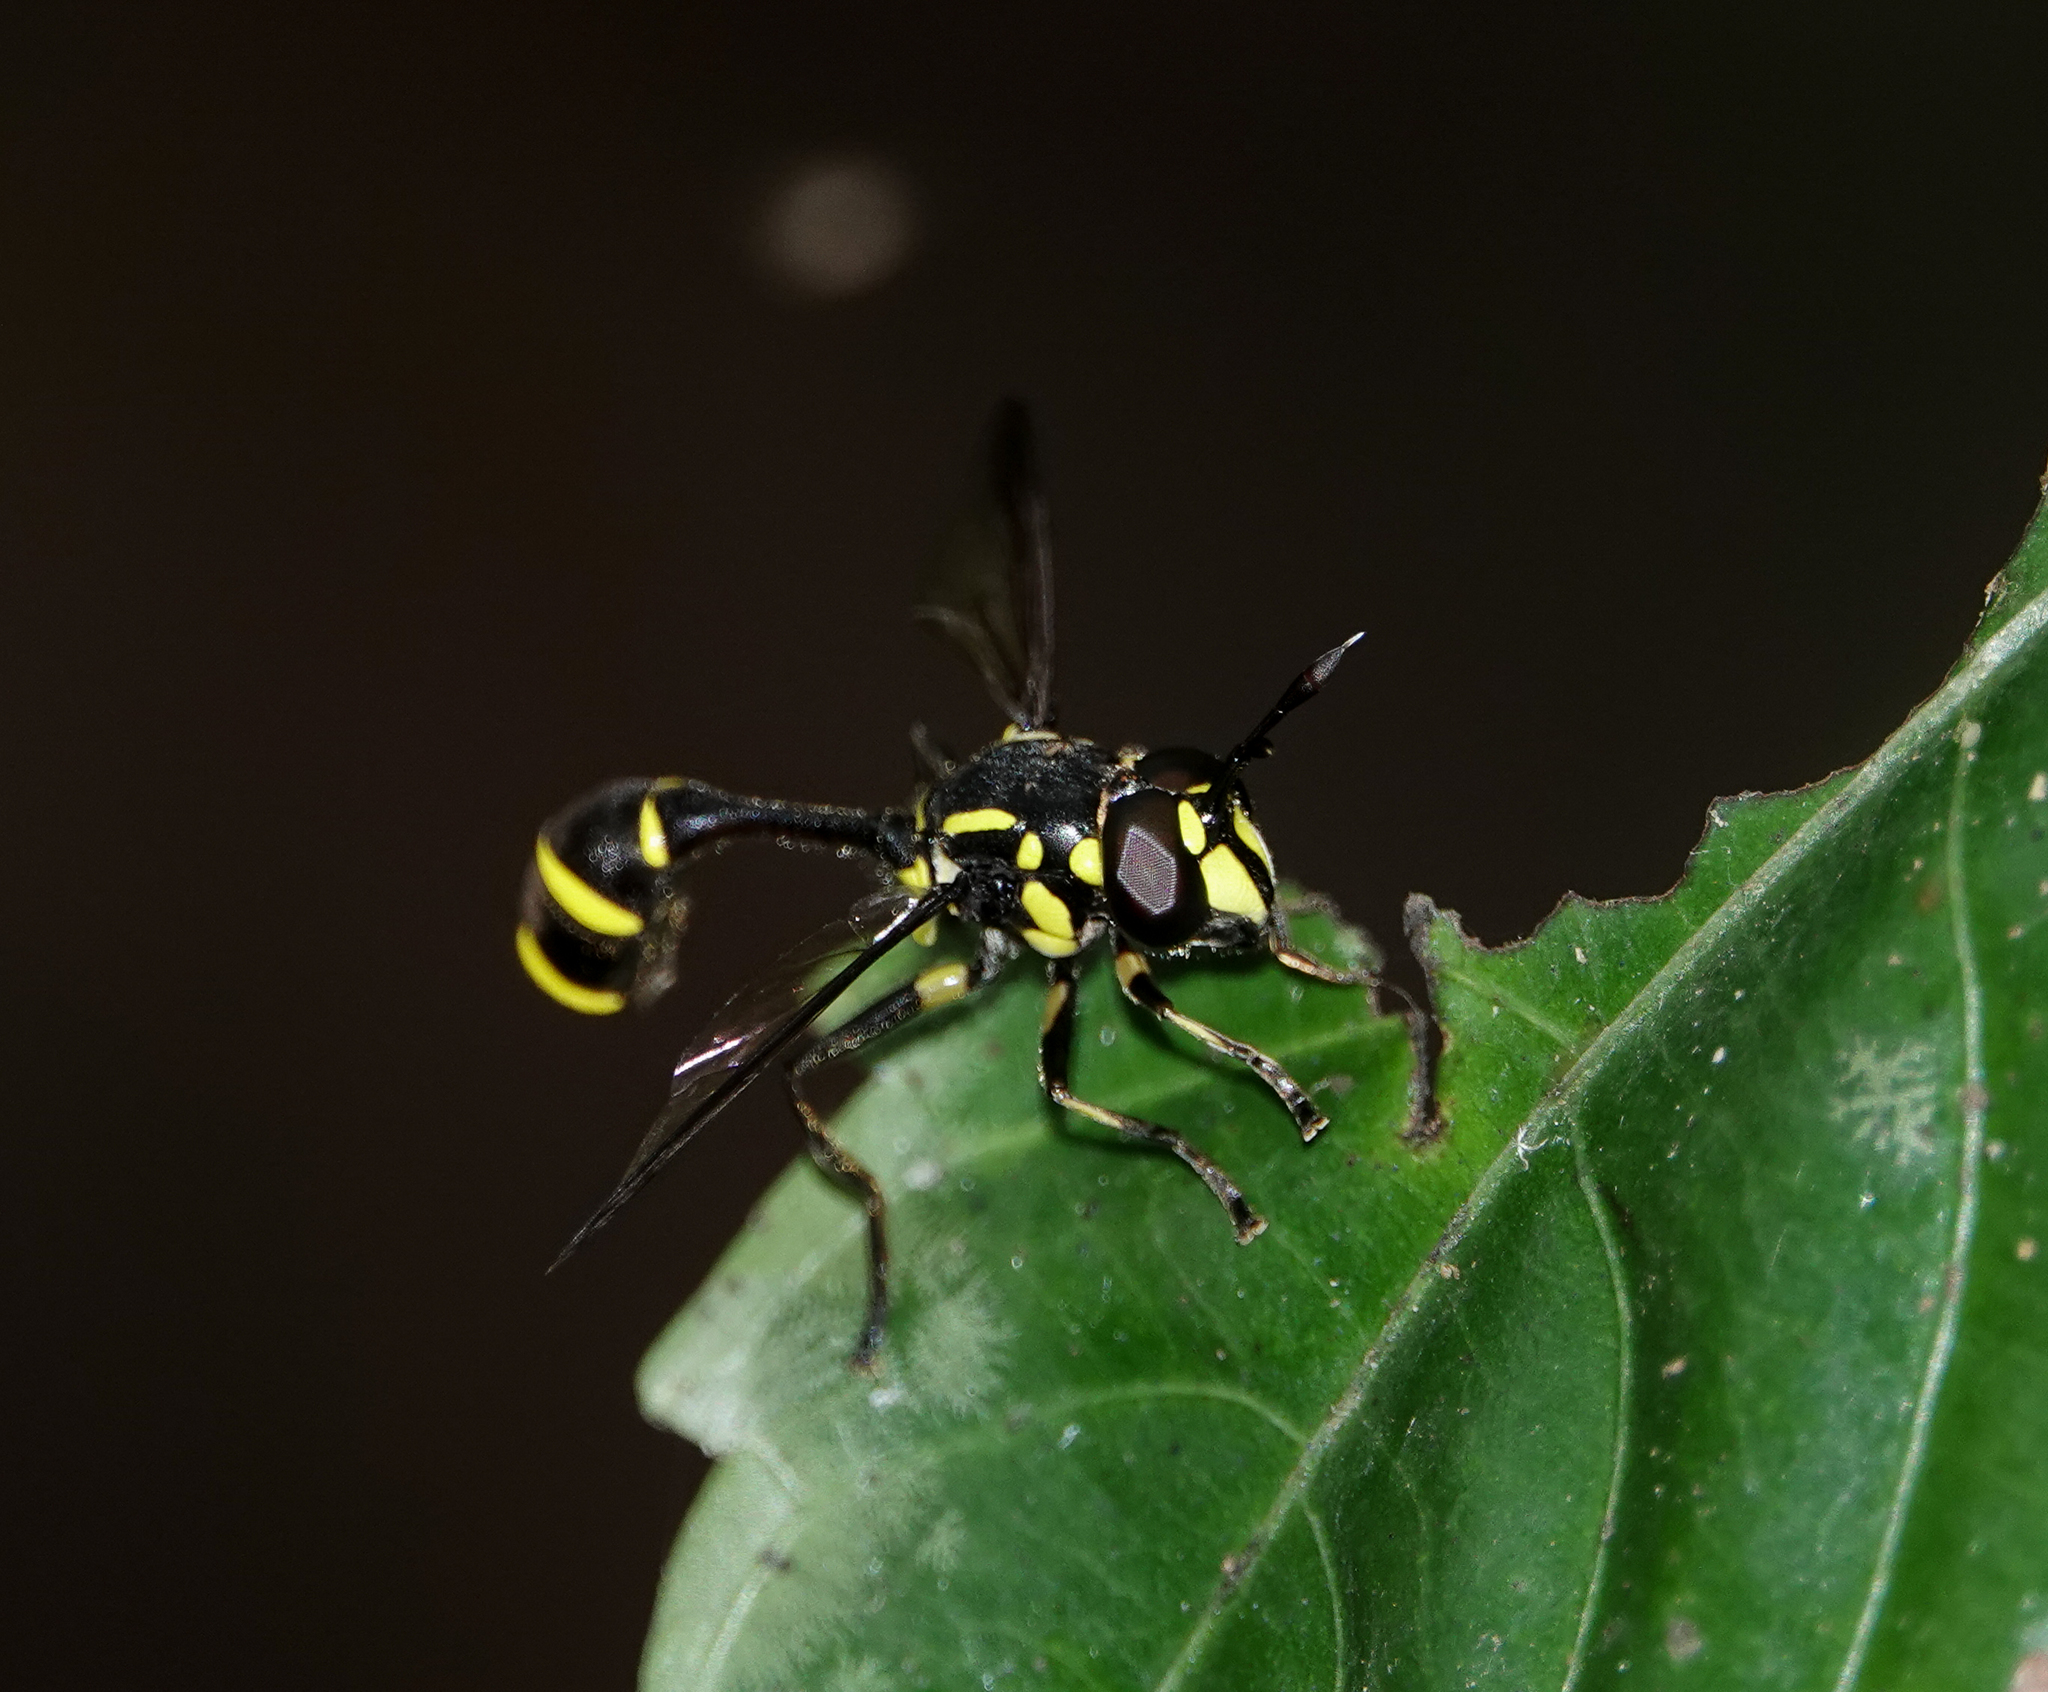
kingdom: Animalia
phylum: Arthropoda
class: Insecta
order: Diptera
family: Syrphidae
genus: Monoceromyia
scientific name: Monoceromyia tredecimpunctata
